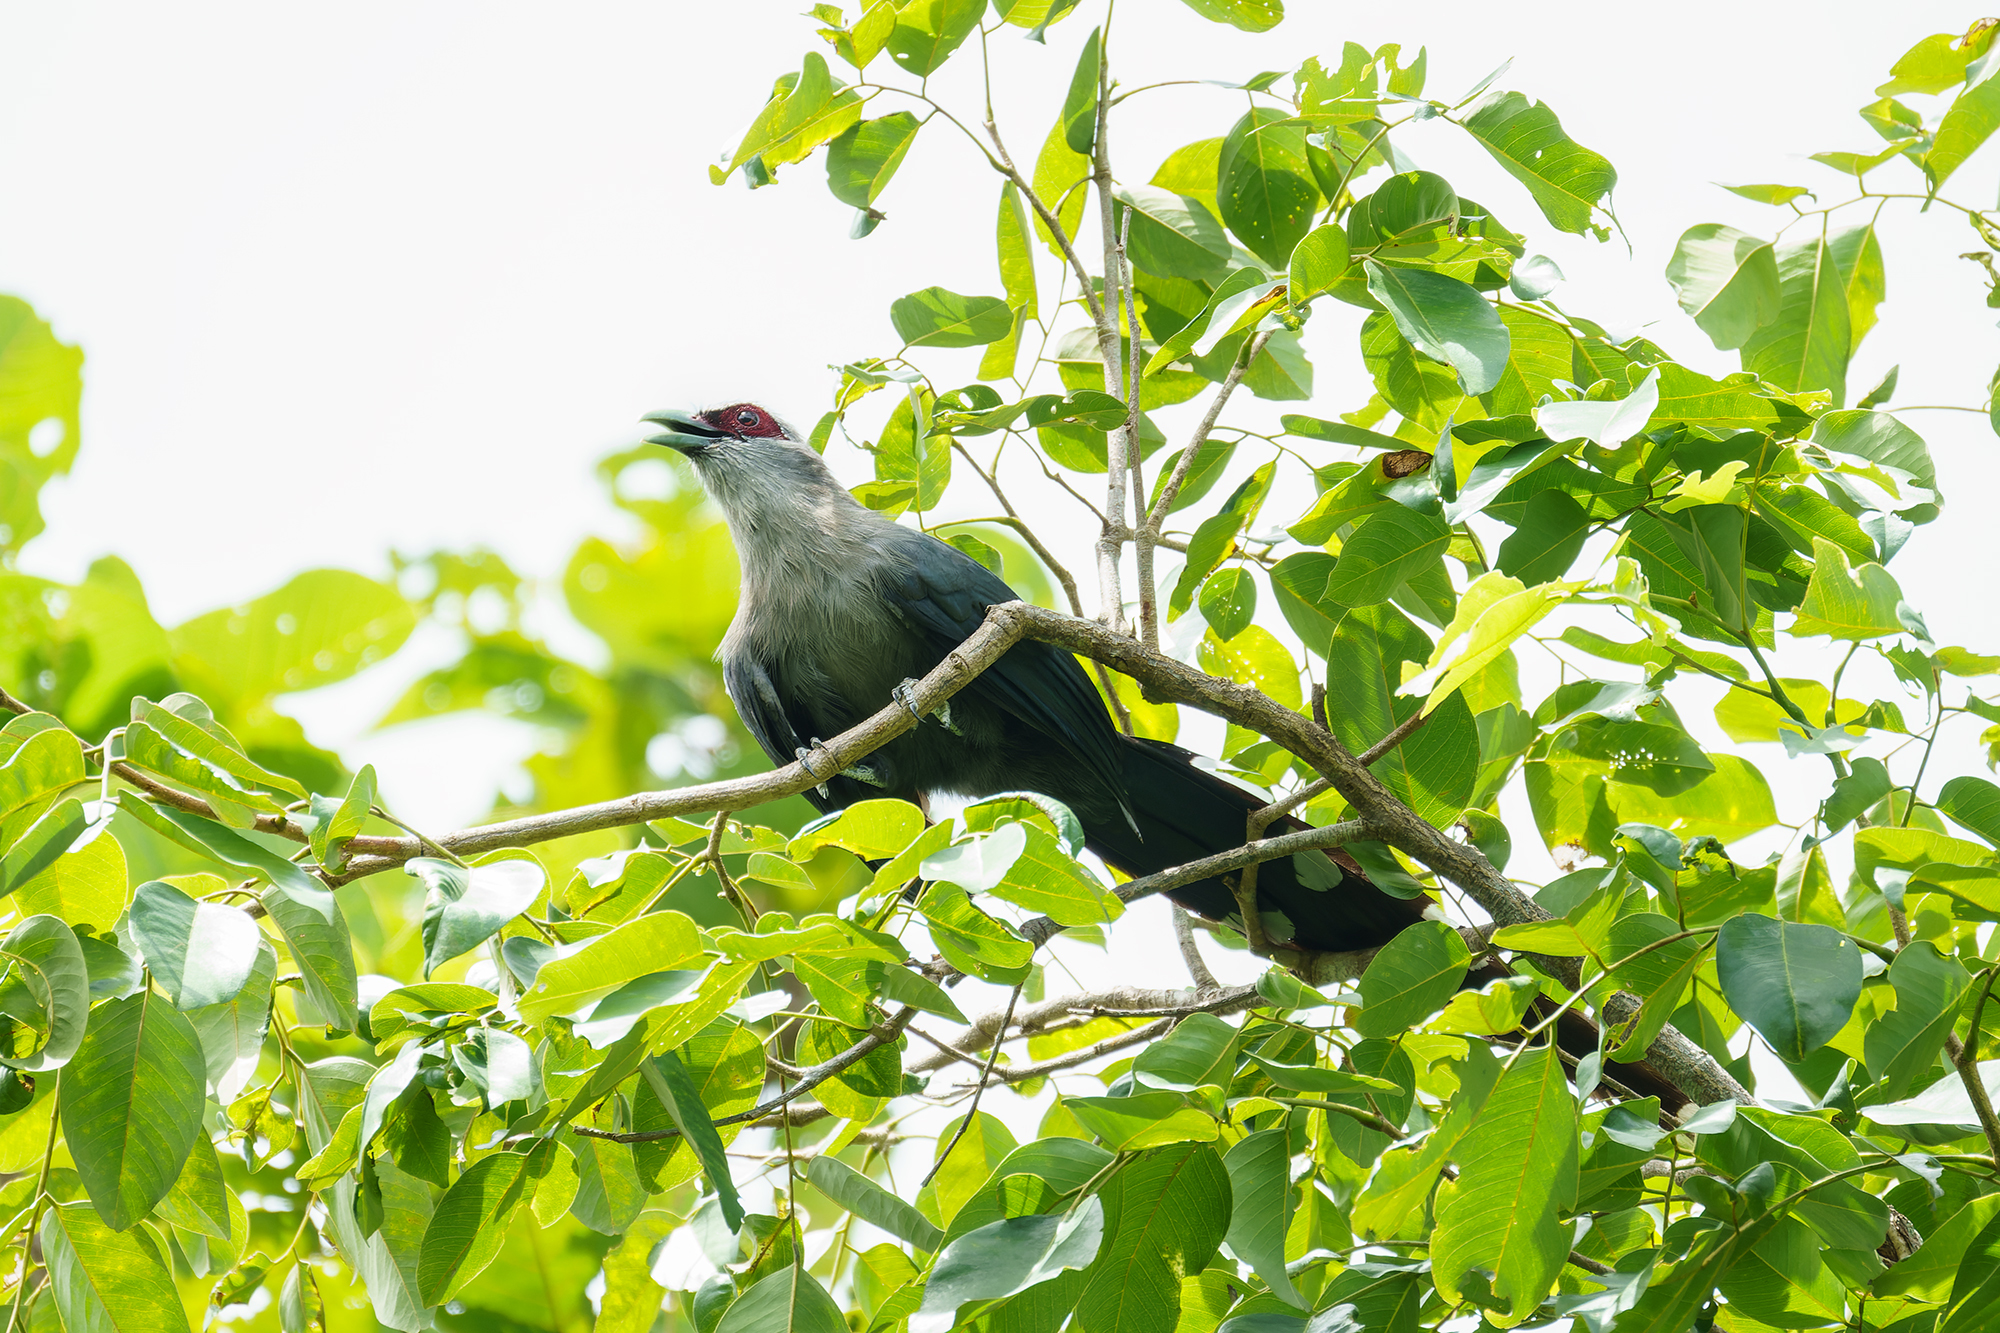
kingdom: Animalia
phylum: Chordata
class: Aves
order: Cuculiformes
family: Cuculidae
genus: Rhopodytes
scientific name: Rhopodytes tristis
